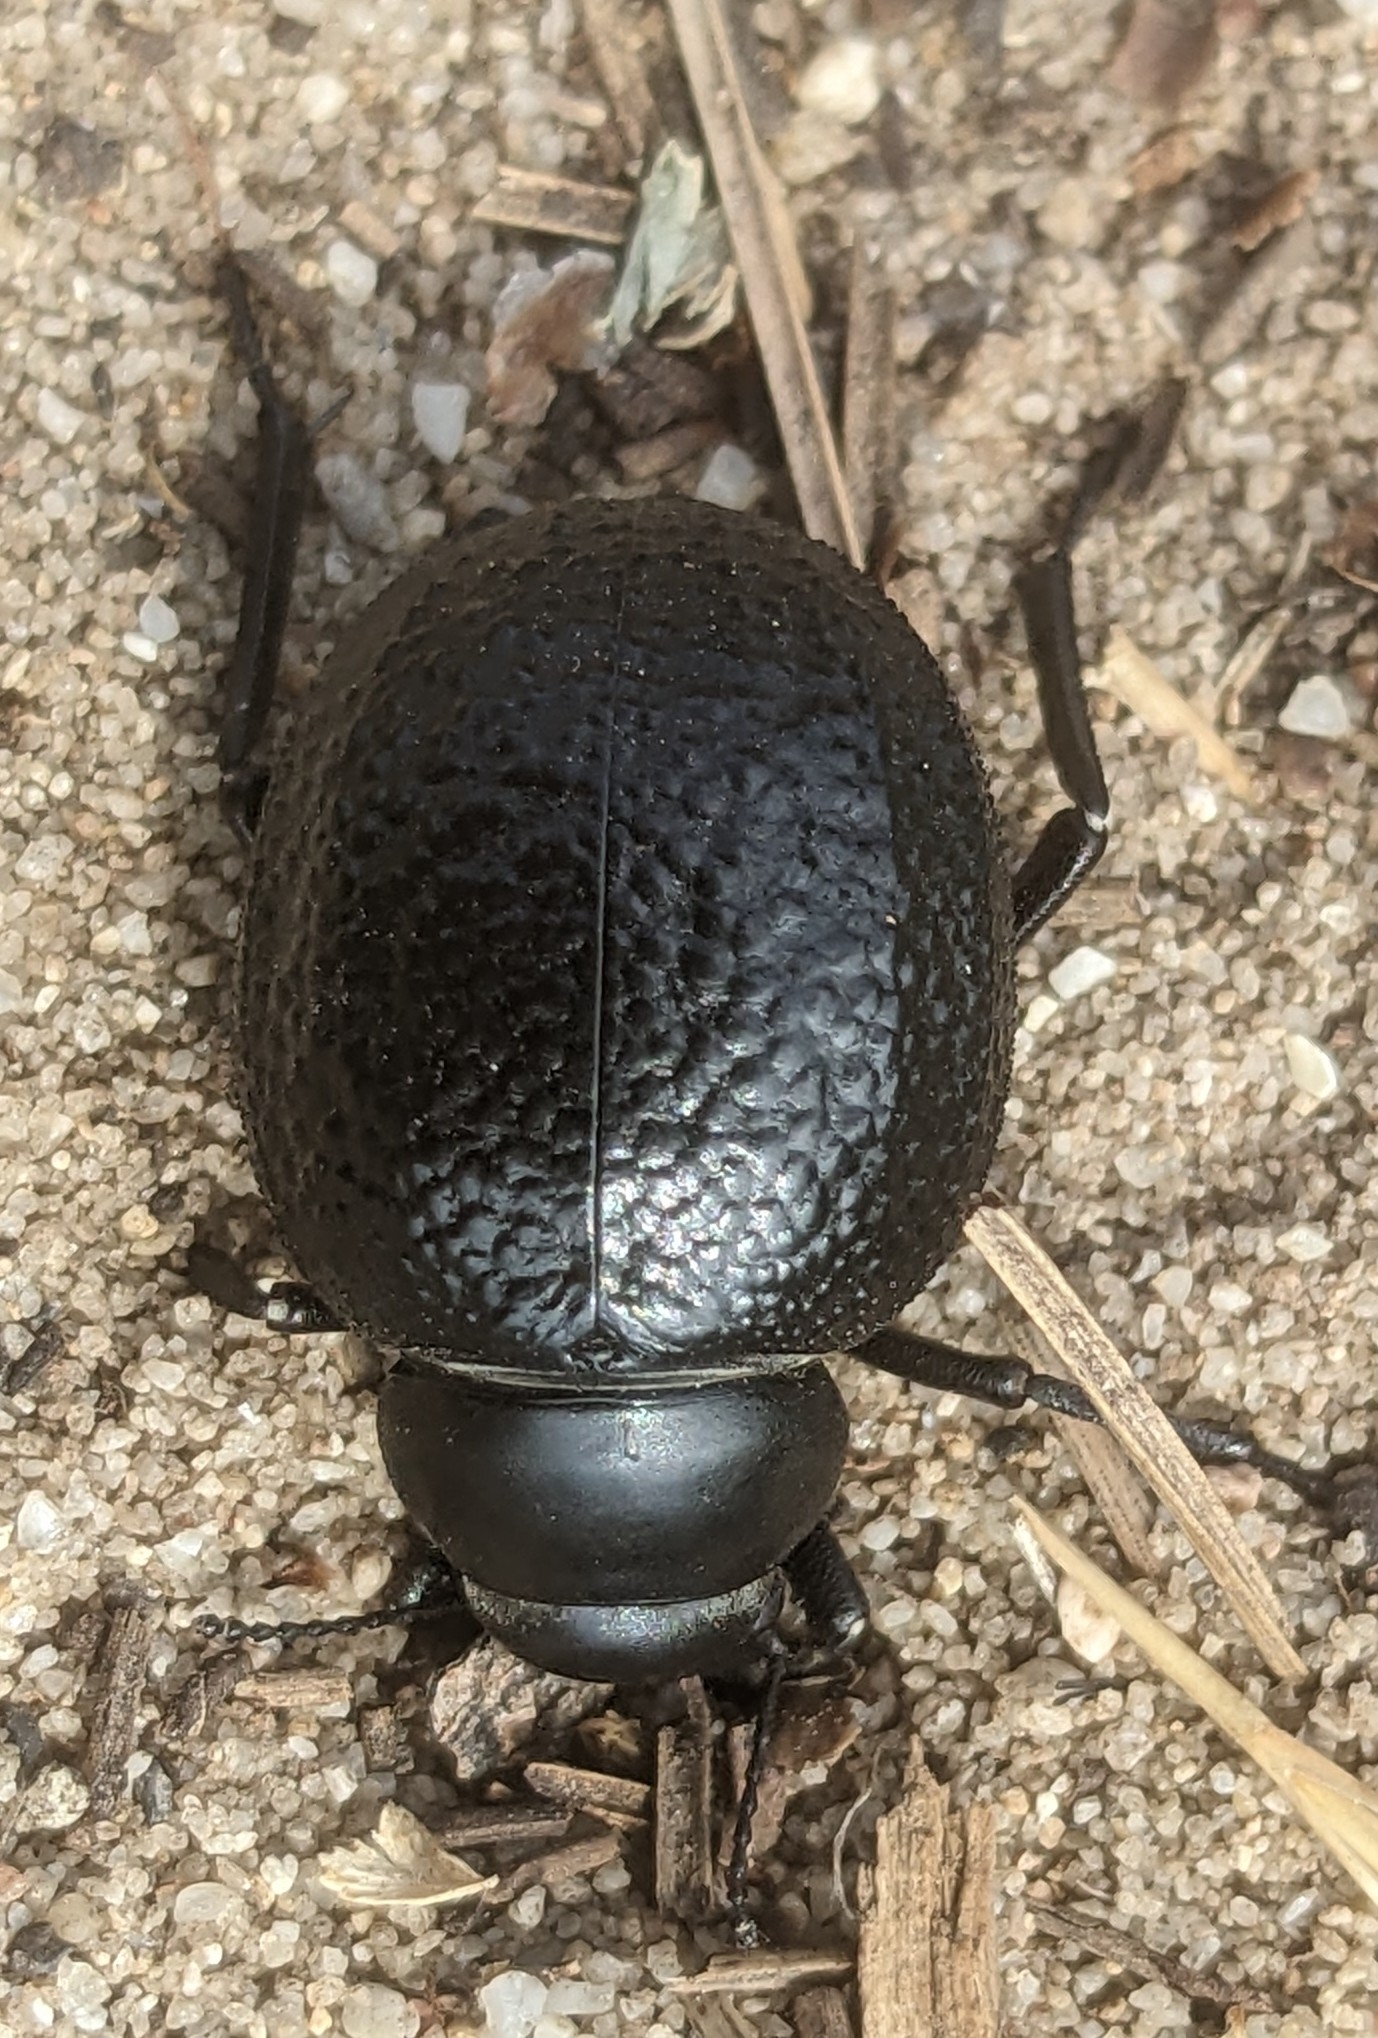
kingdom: Animalia
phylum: Arthropoda
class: Insecta
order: Coleoptera
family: Tenebrionidae
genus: Pimelia
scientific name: Pimelia subglobosa
